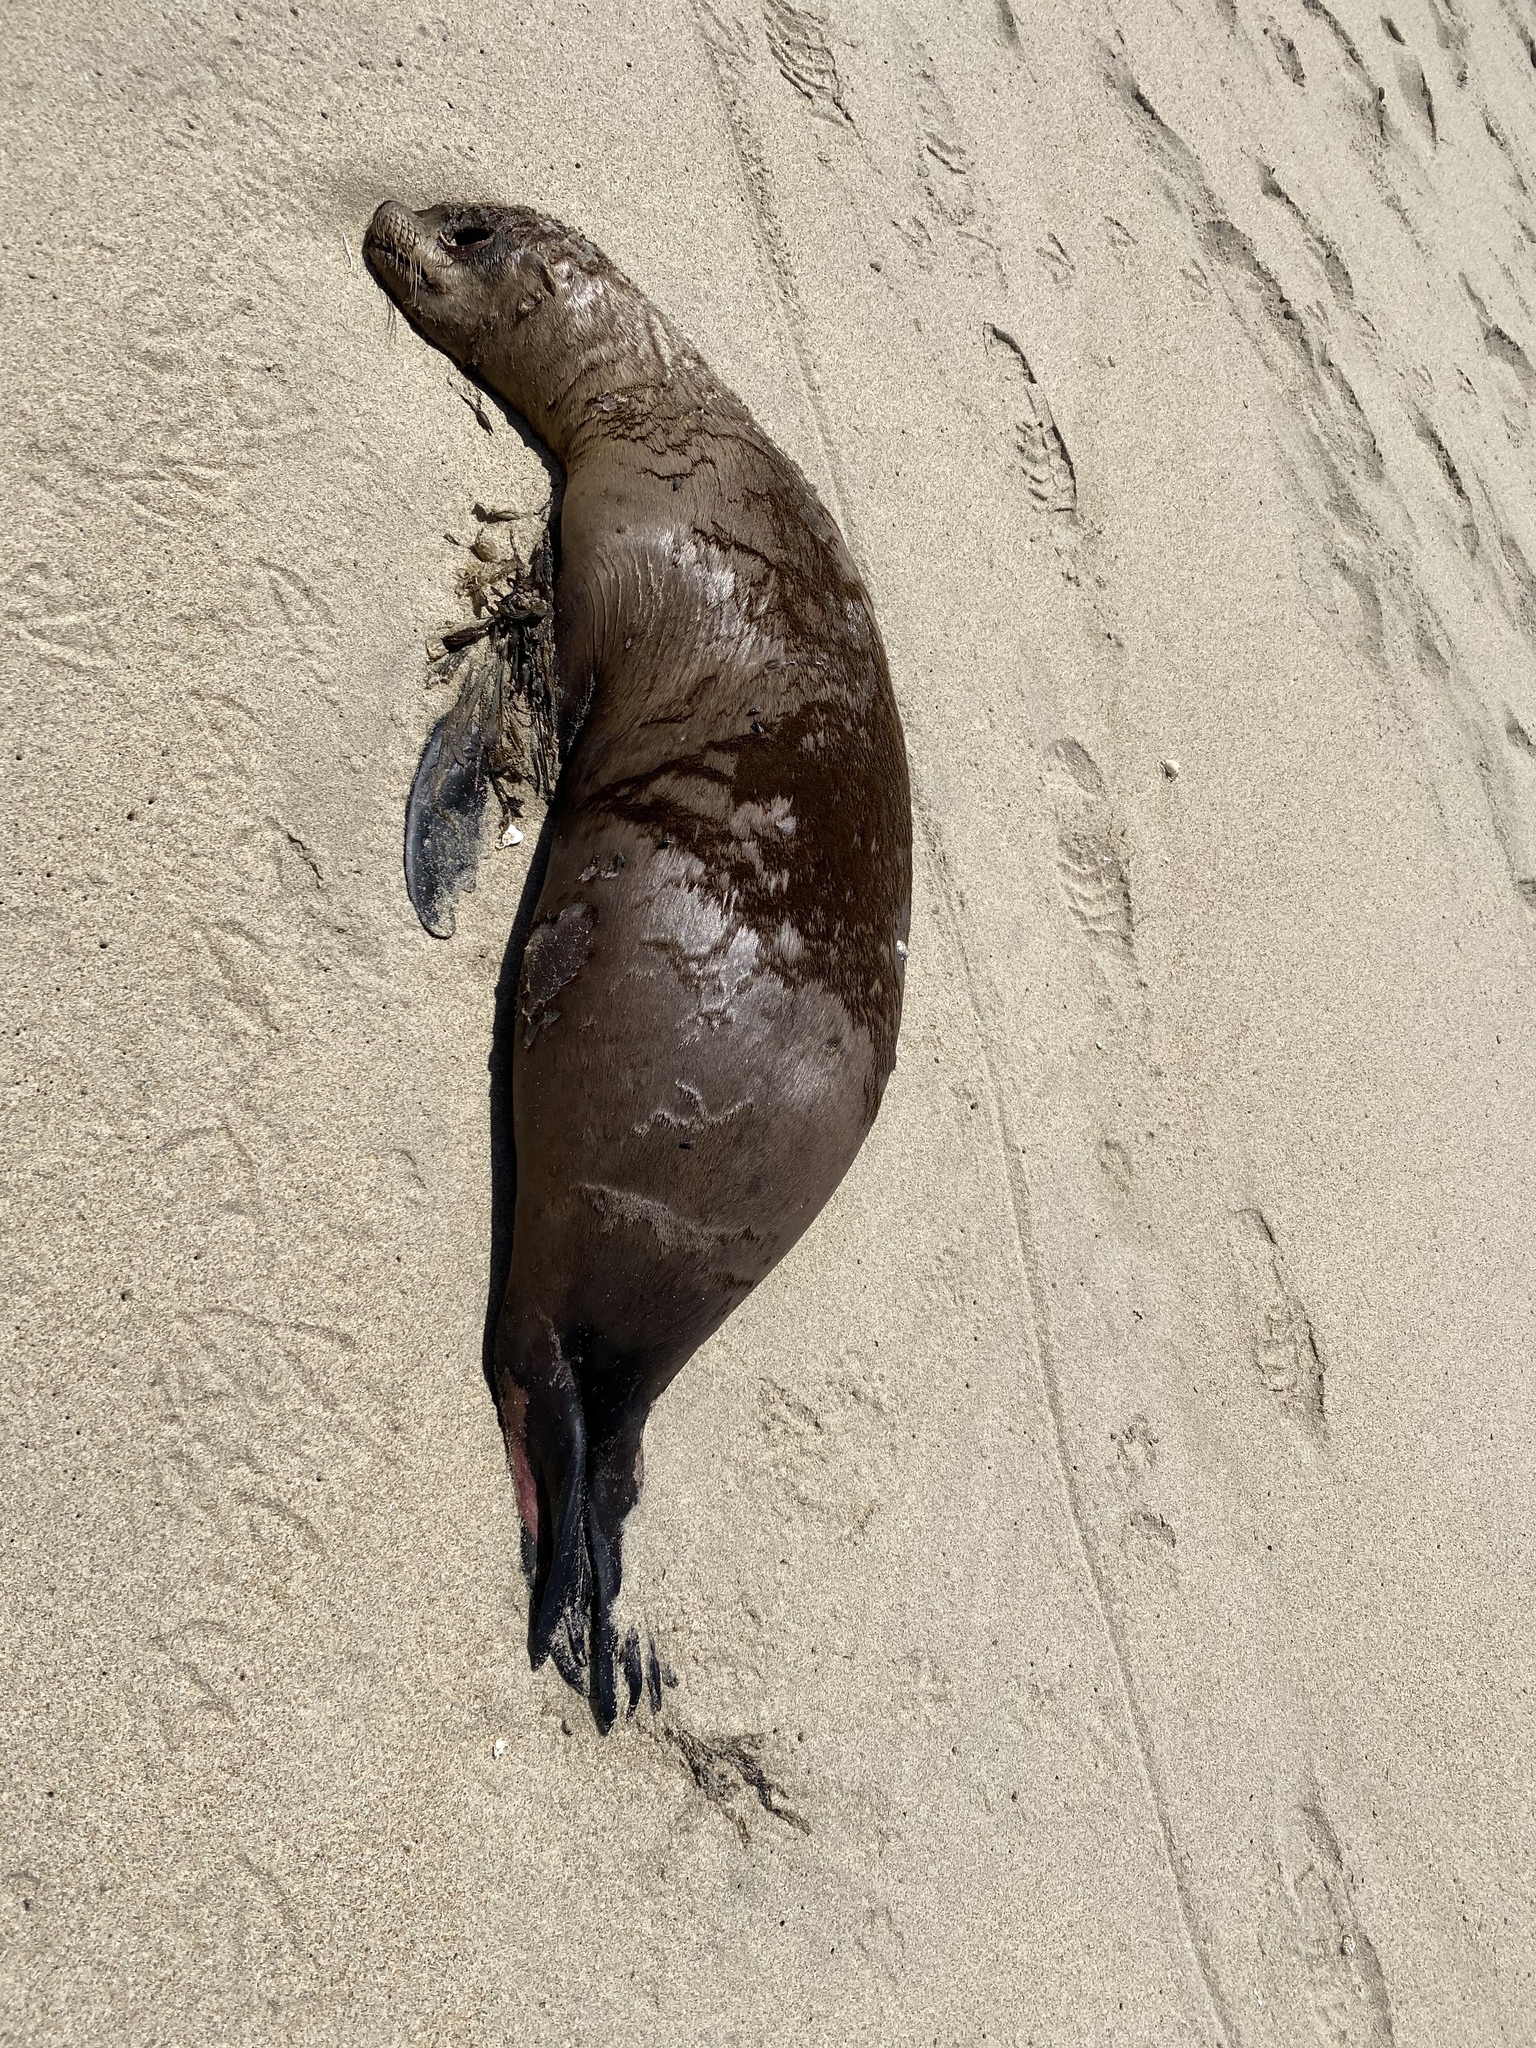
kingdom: Animalia
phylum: Chordata
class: Mammalia
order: Carnivora
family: Otariidae
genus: Zalophus
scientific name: Zalophus californianus
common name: California sea lion
